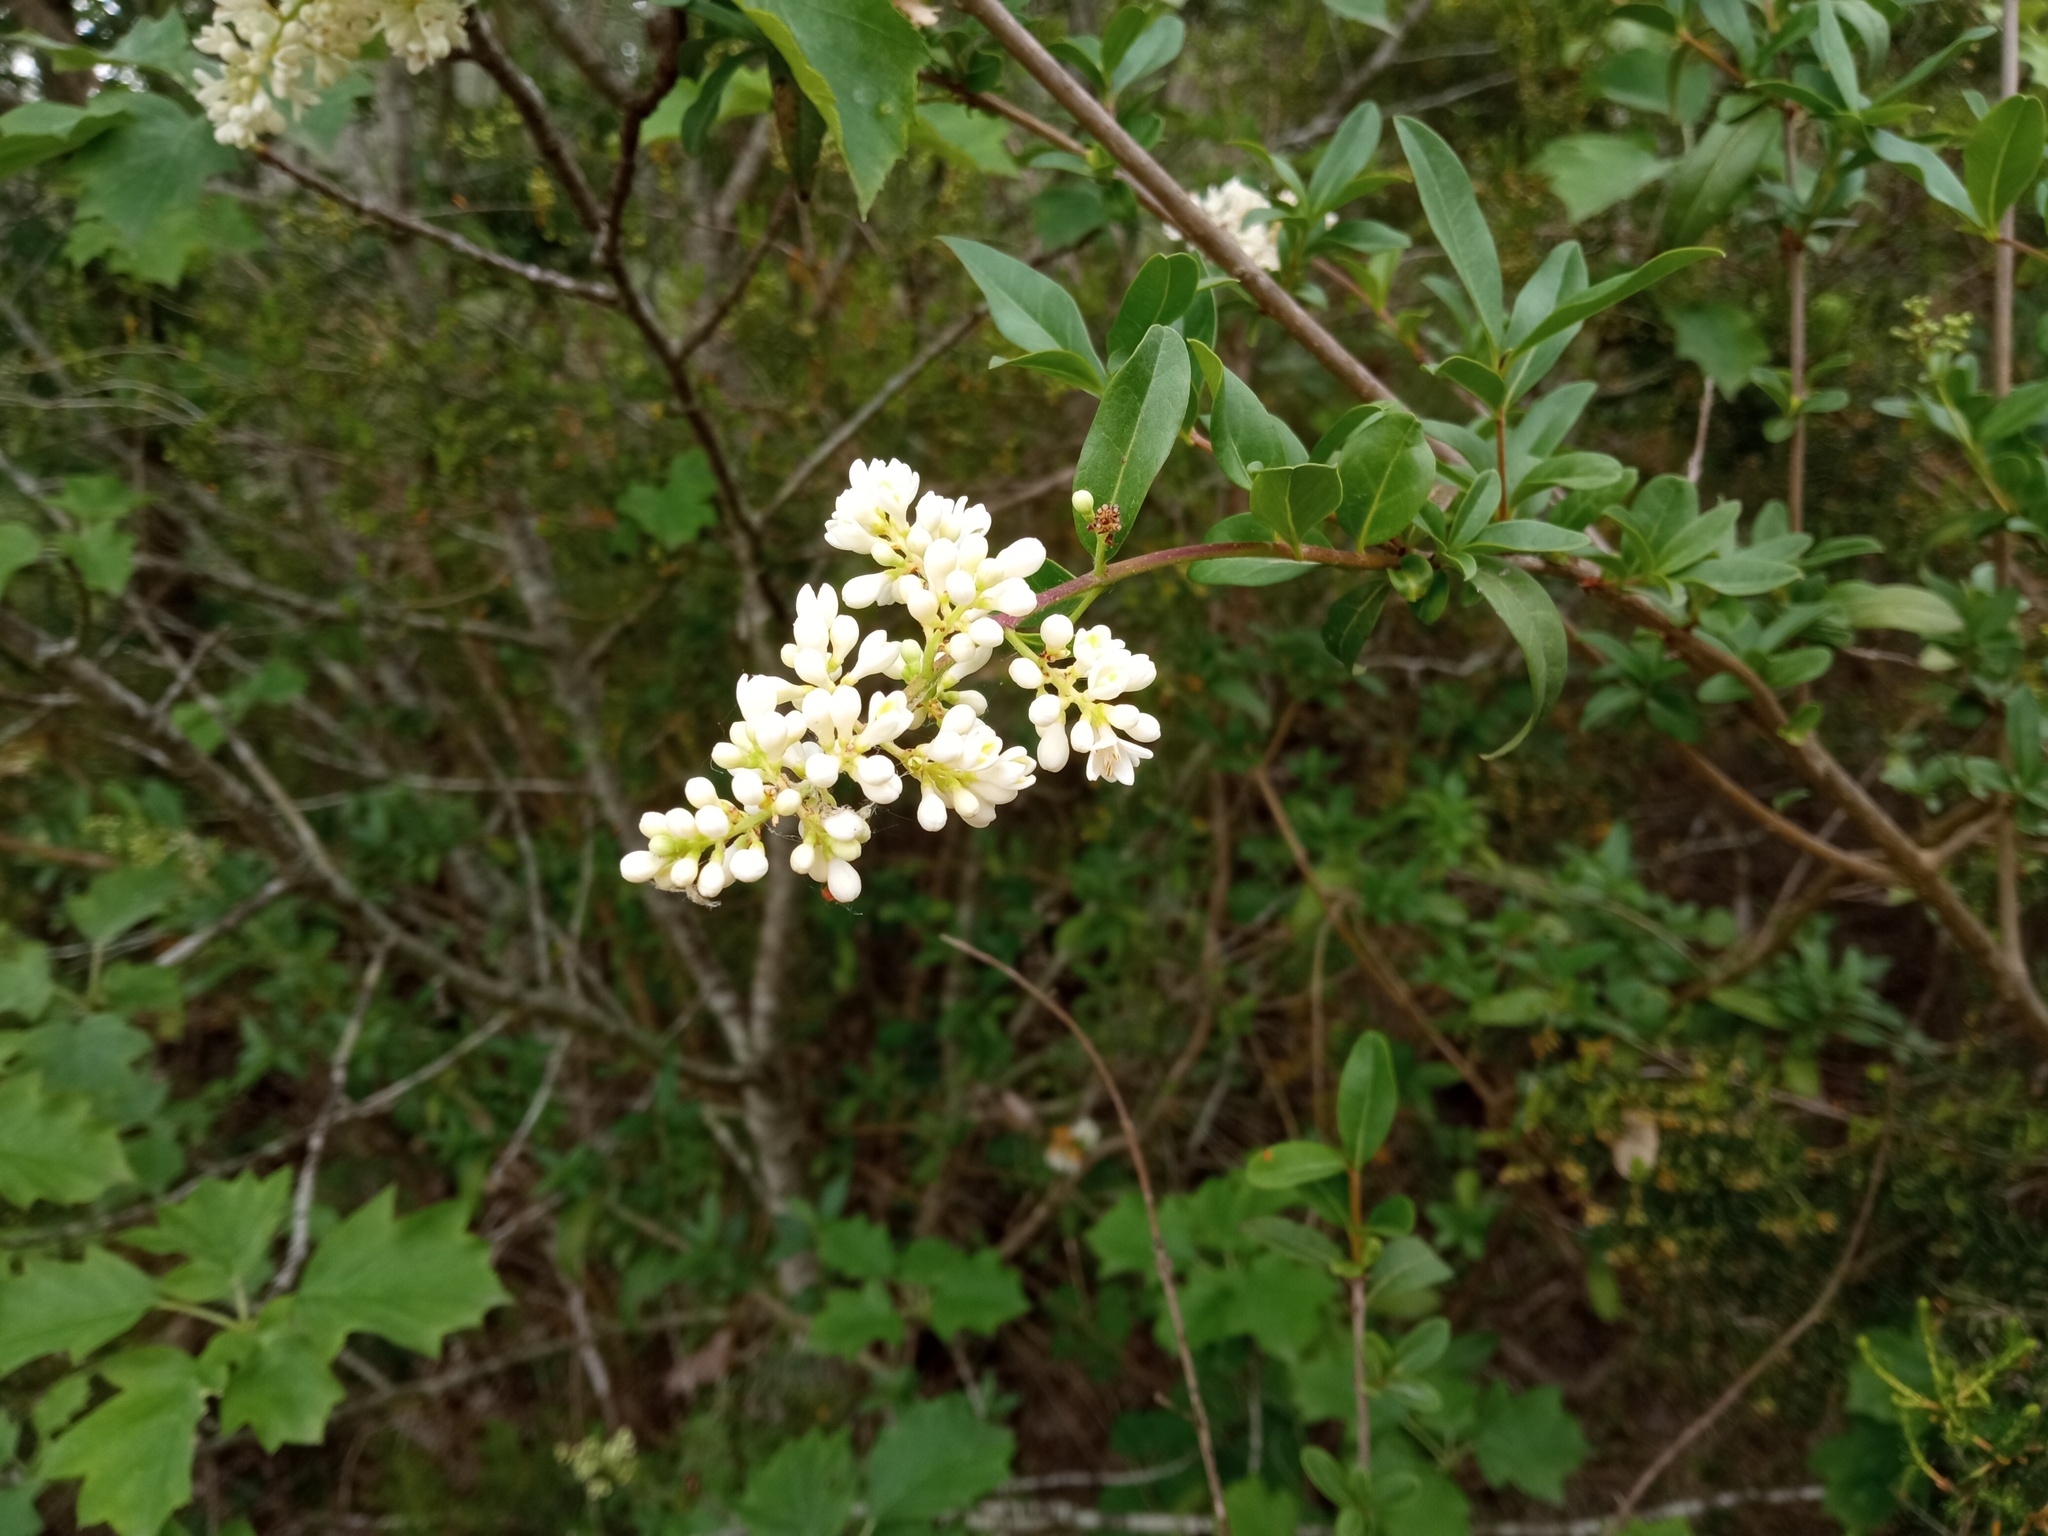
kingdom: Plantae
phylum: Tracheophyta
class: Magnoliopsida
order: Lamiales
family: Oleaceae
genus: Ligustrum
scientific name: Ligustrum vulgare
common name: Wild privet
